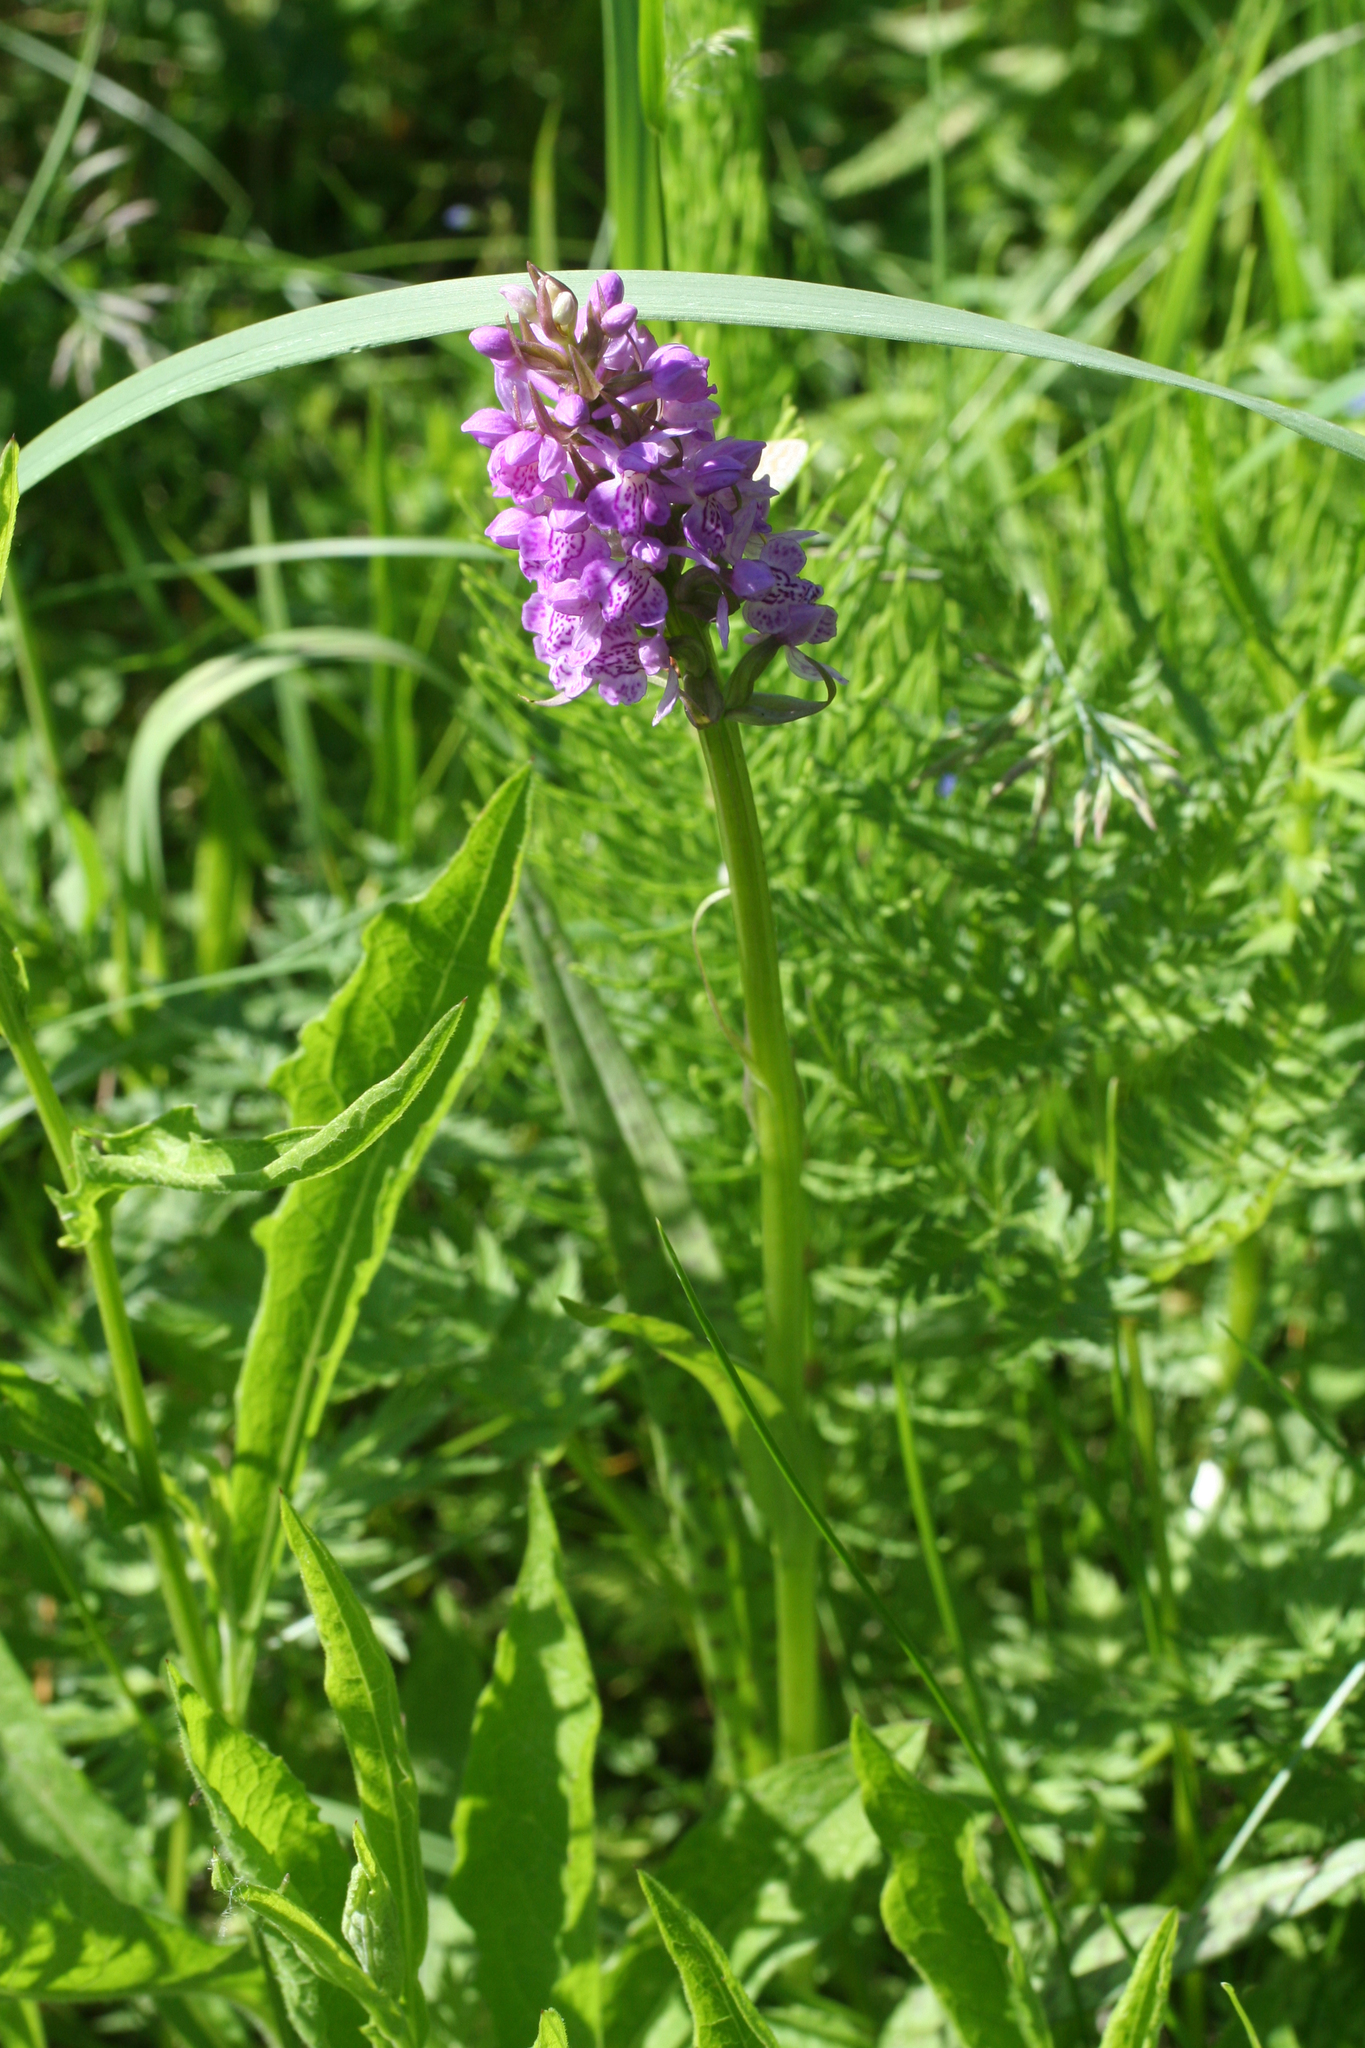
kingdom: Plantae
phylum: Tracheophyta
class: Liliopsida
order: Asparagales
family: Orchidaceae
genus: Dactylorhiza
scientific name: Dactylorhiza majalis
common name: Marsh orchid
